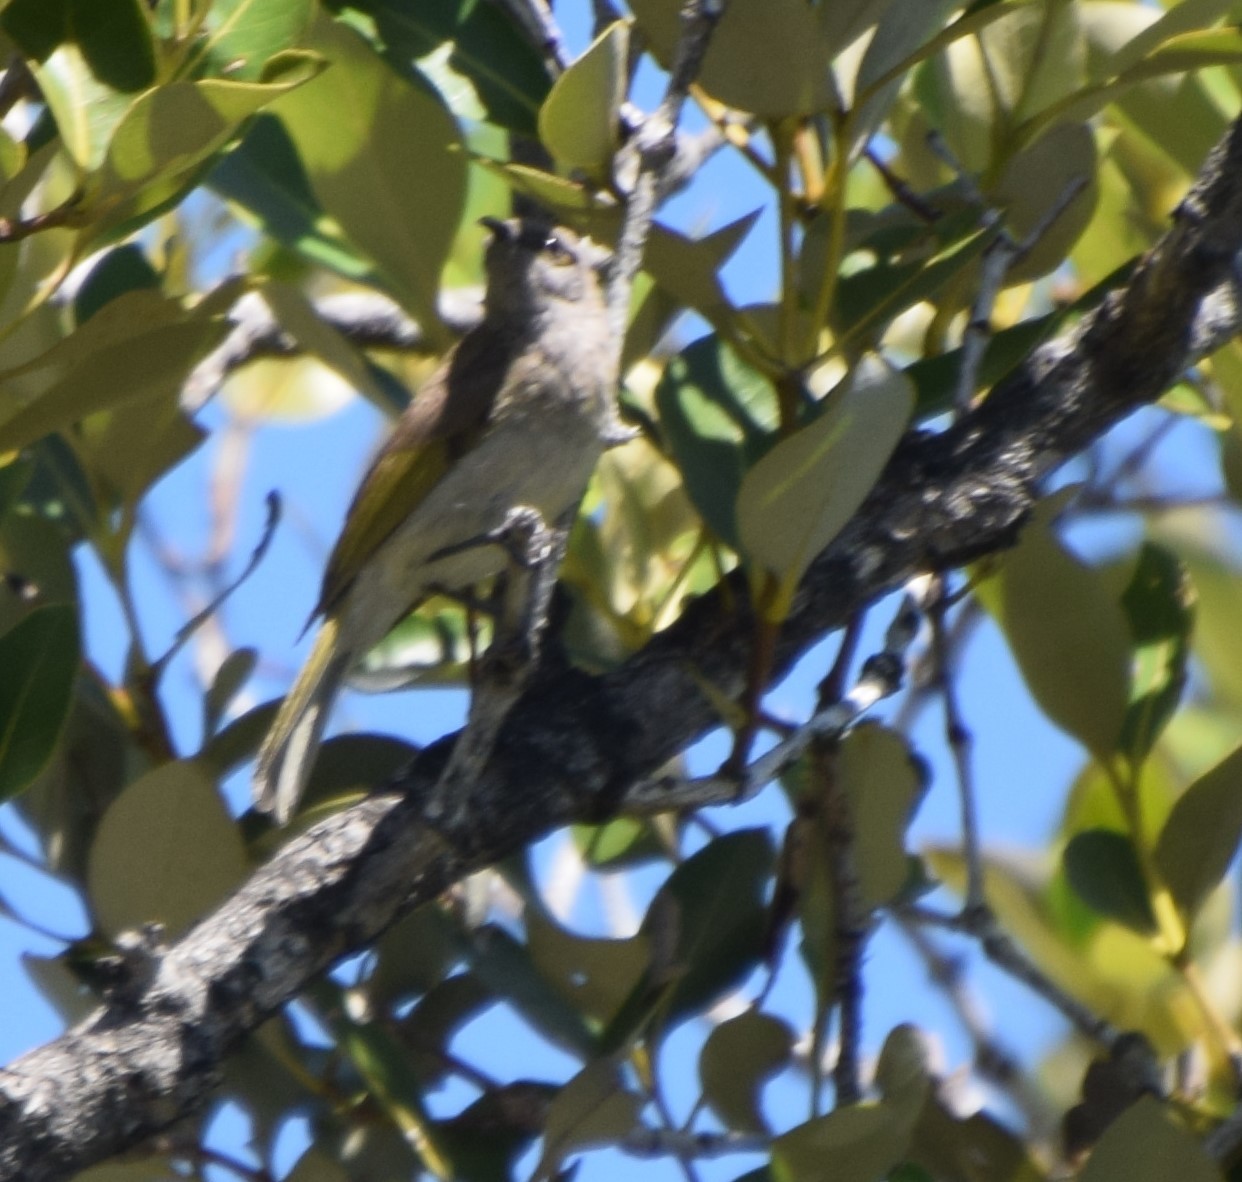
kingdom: Animalia
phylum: Chordata
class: Aves
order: Passeriformes
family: Meliphagidae
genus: Lichmera
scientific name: Lichmera indistincta
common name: Brown honeyeater
